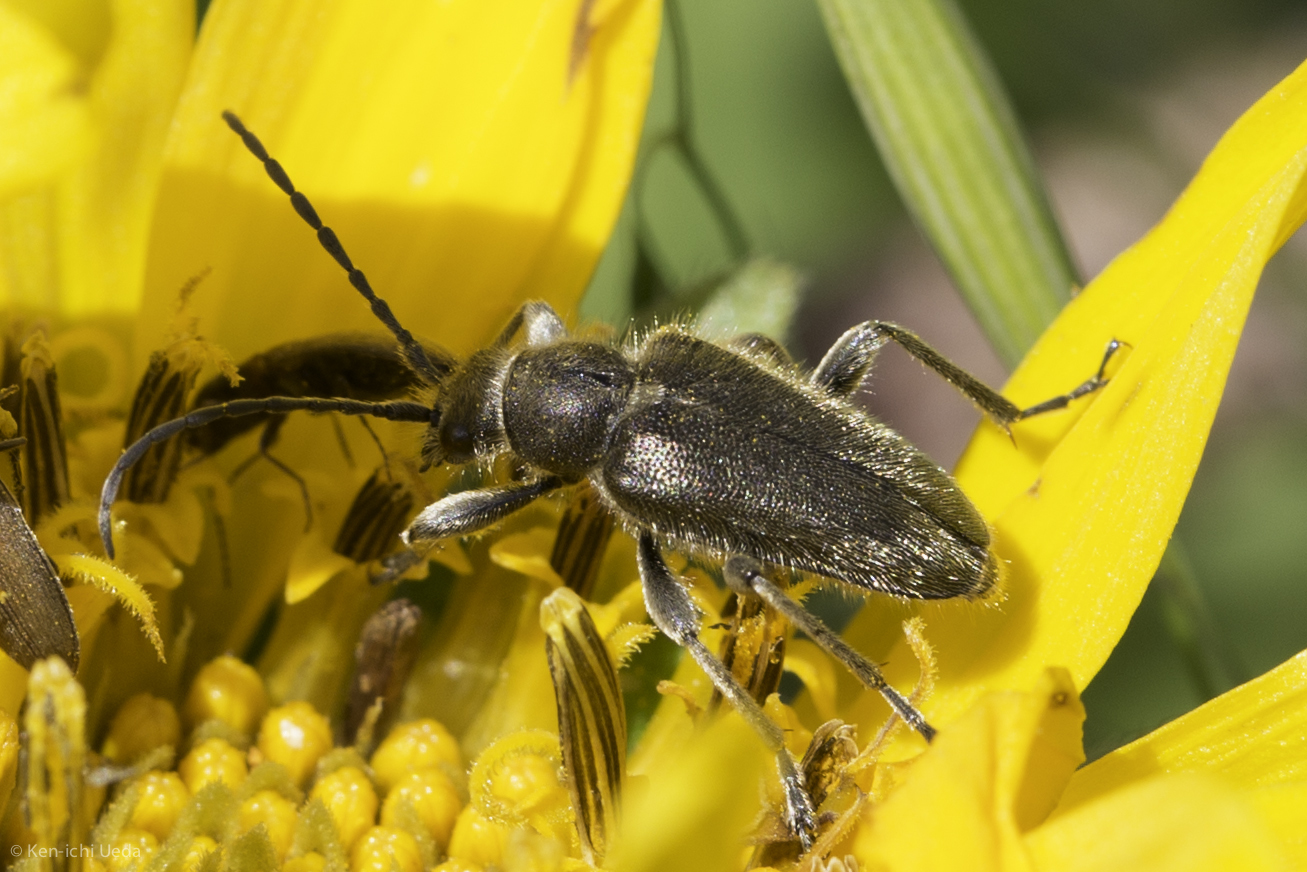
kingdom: Animalia
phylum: Arthropoda
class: Insecta
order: Coleoptera
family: Cerambycidae
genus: Brachysomida
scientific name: Brachysomida californica
